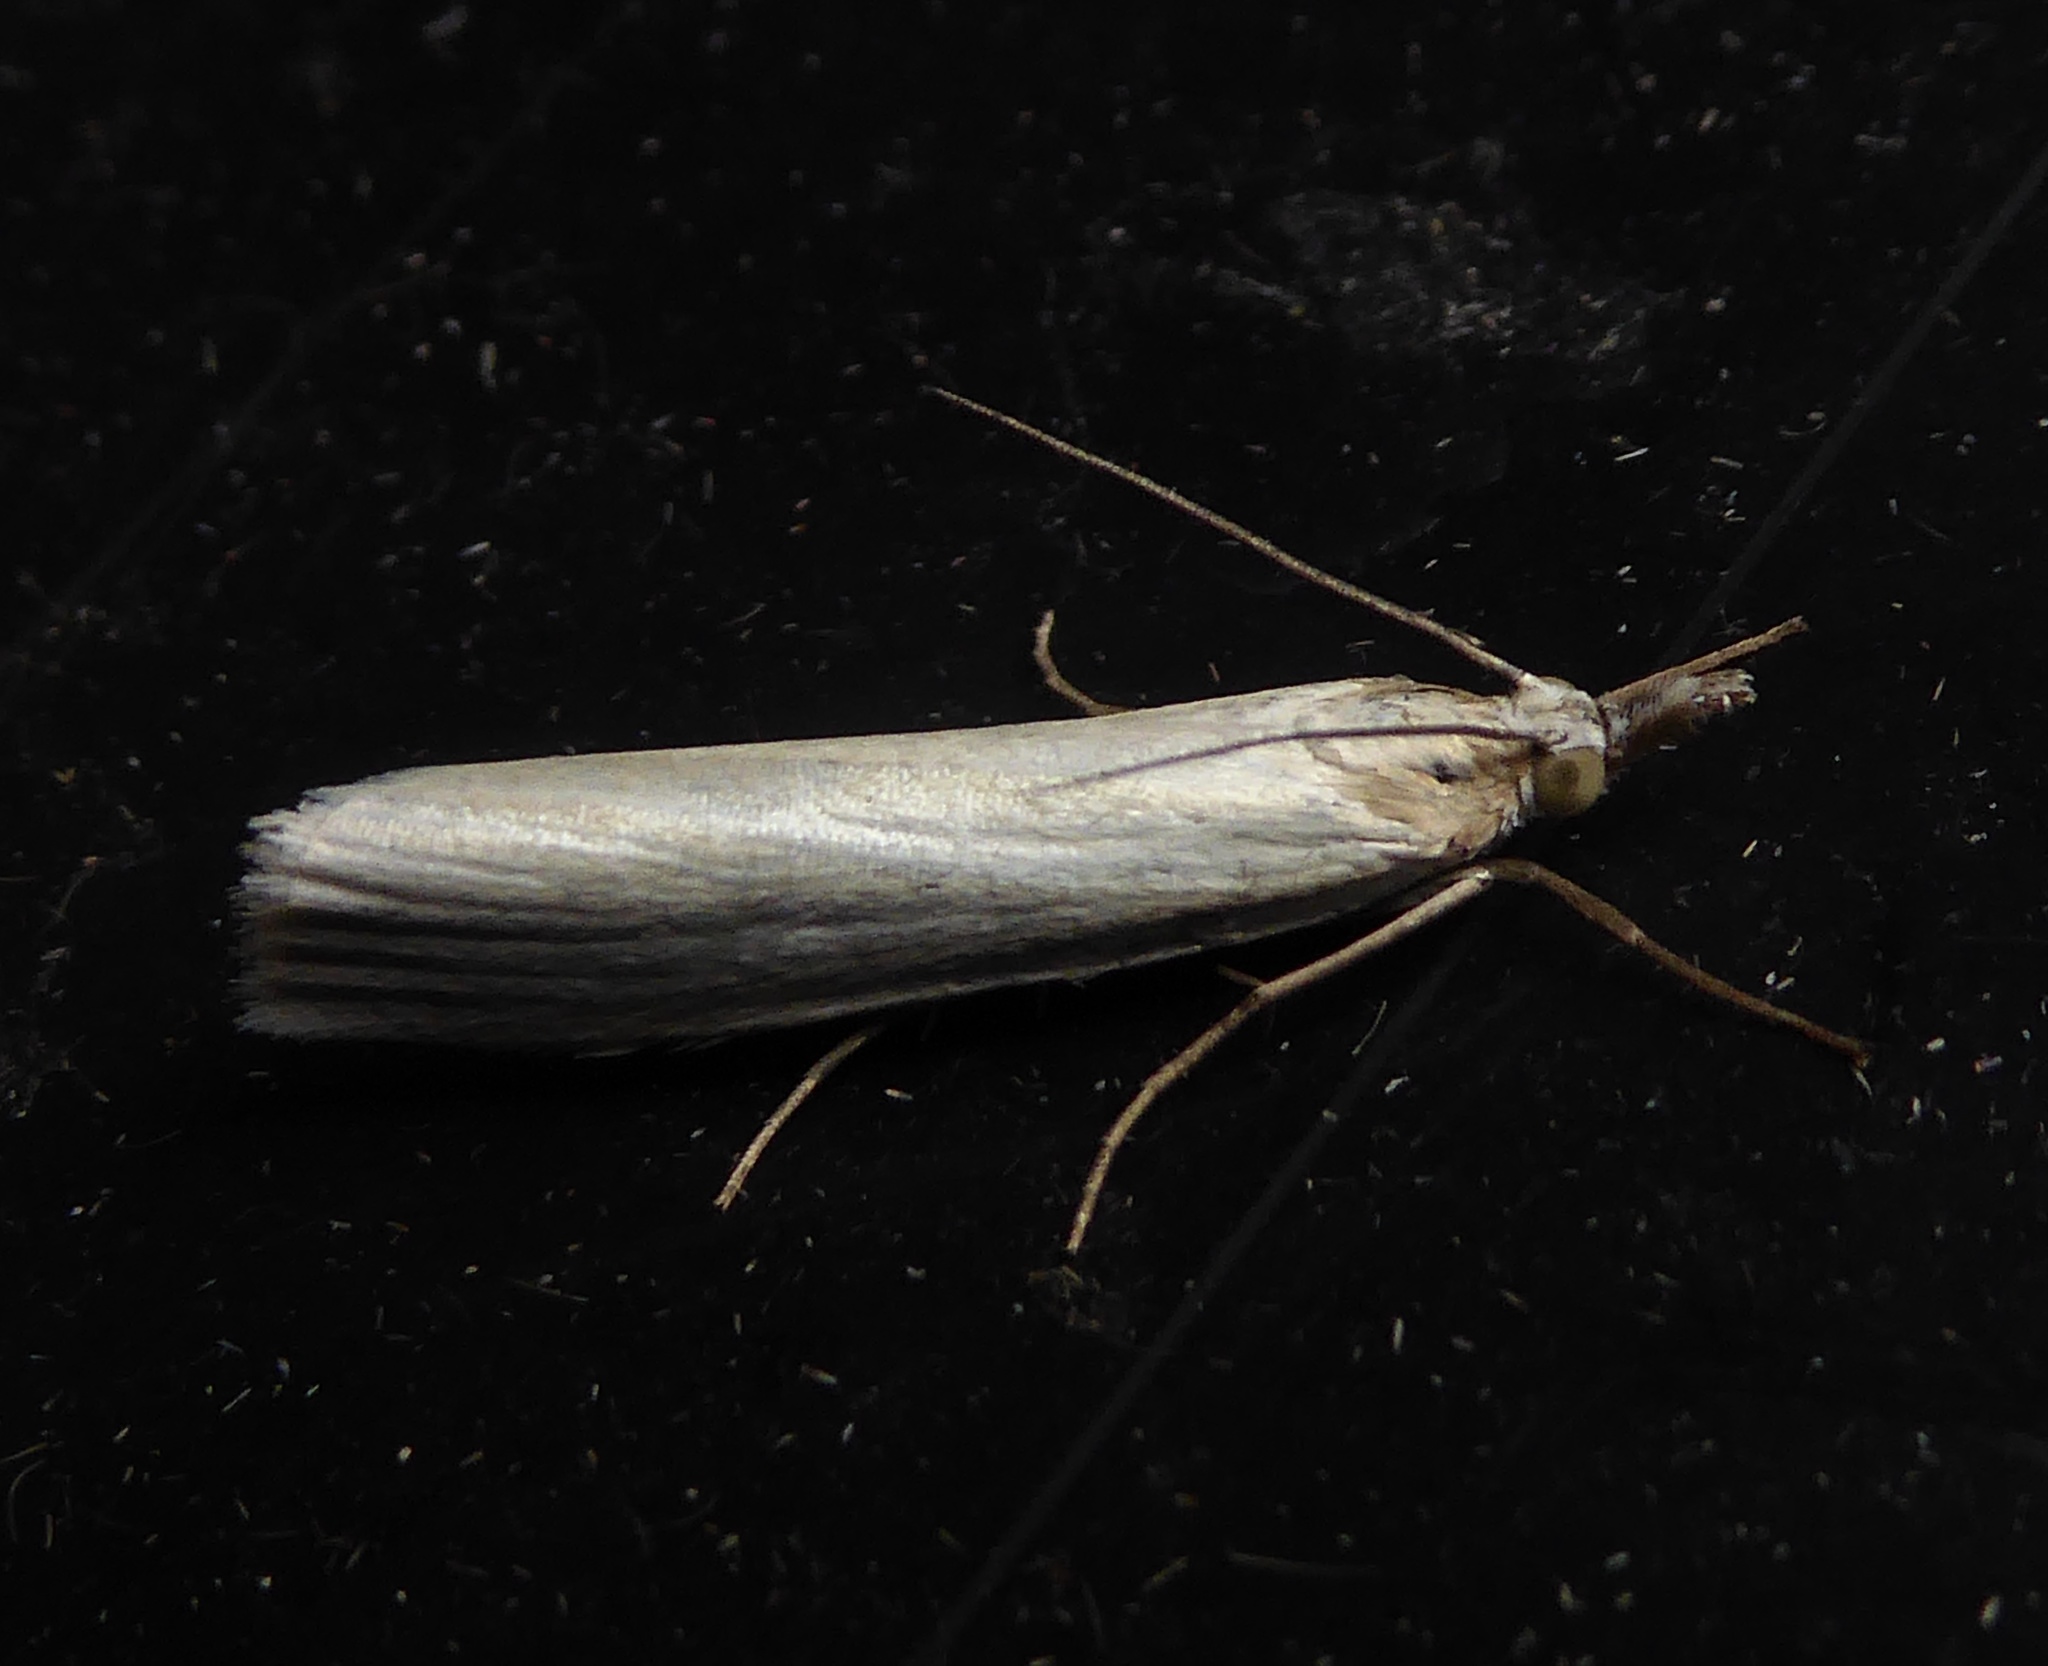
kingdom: Animalia
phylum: Arthropoda
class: Insecta
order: Lepidoptera
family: Crambidae
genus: Crambus
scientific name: Crambus perlellus
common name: Yellow satin veneer
